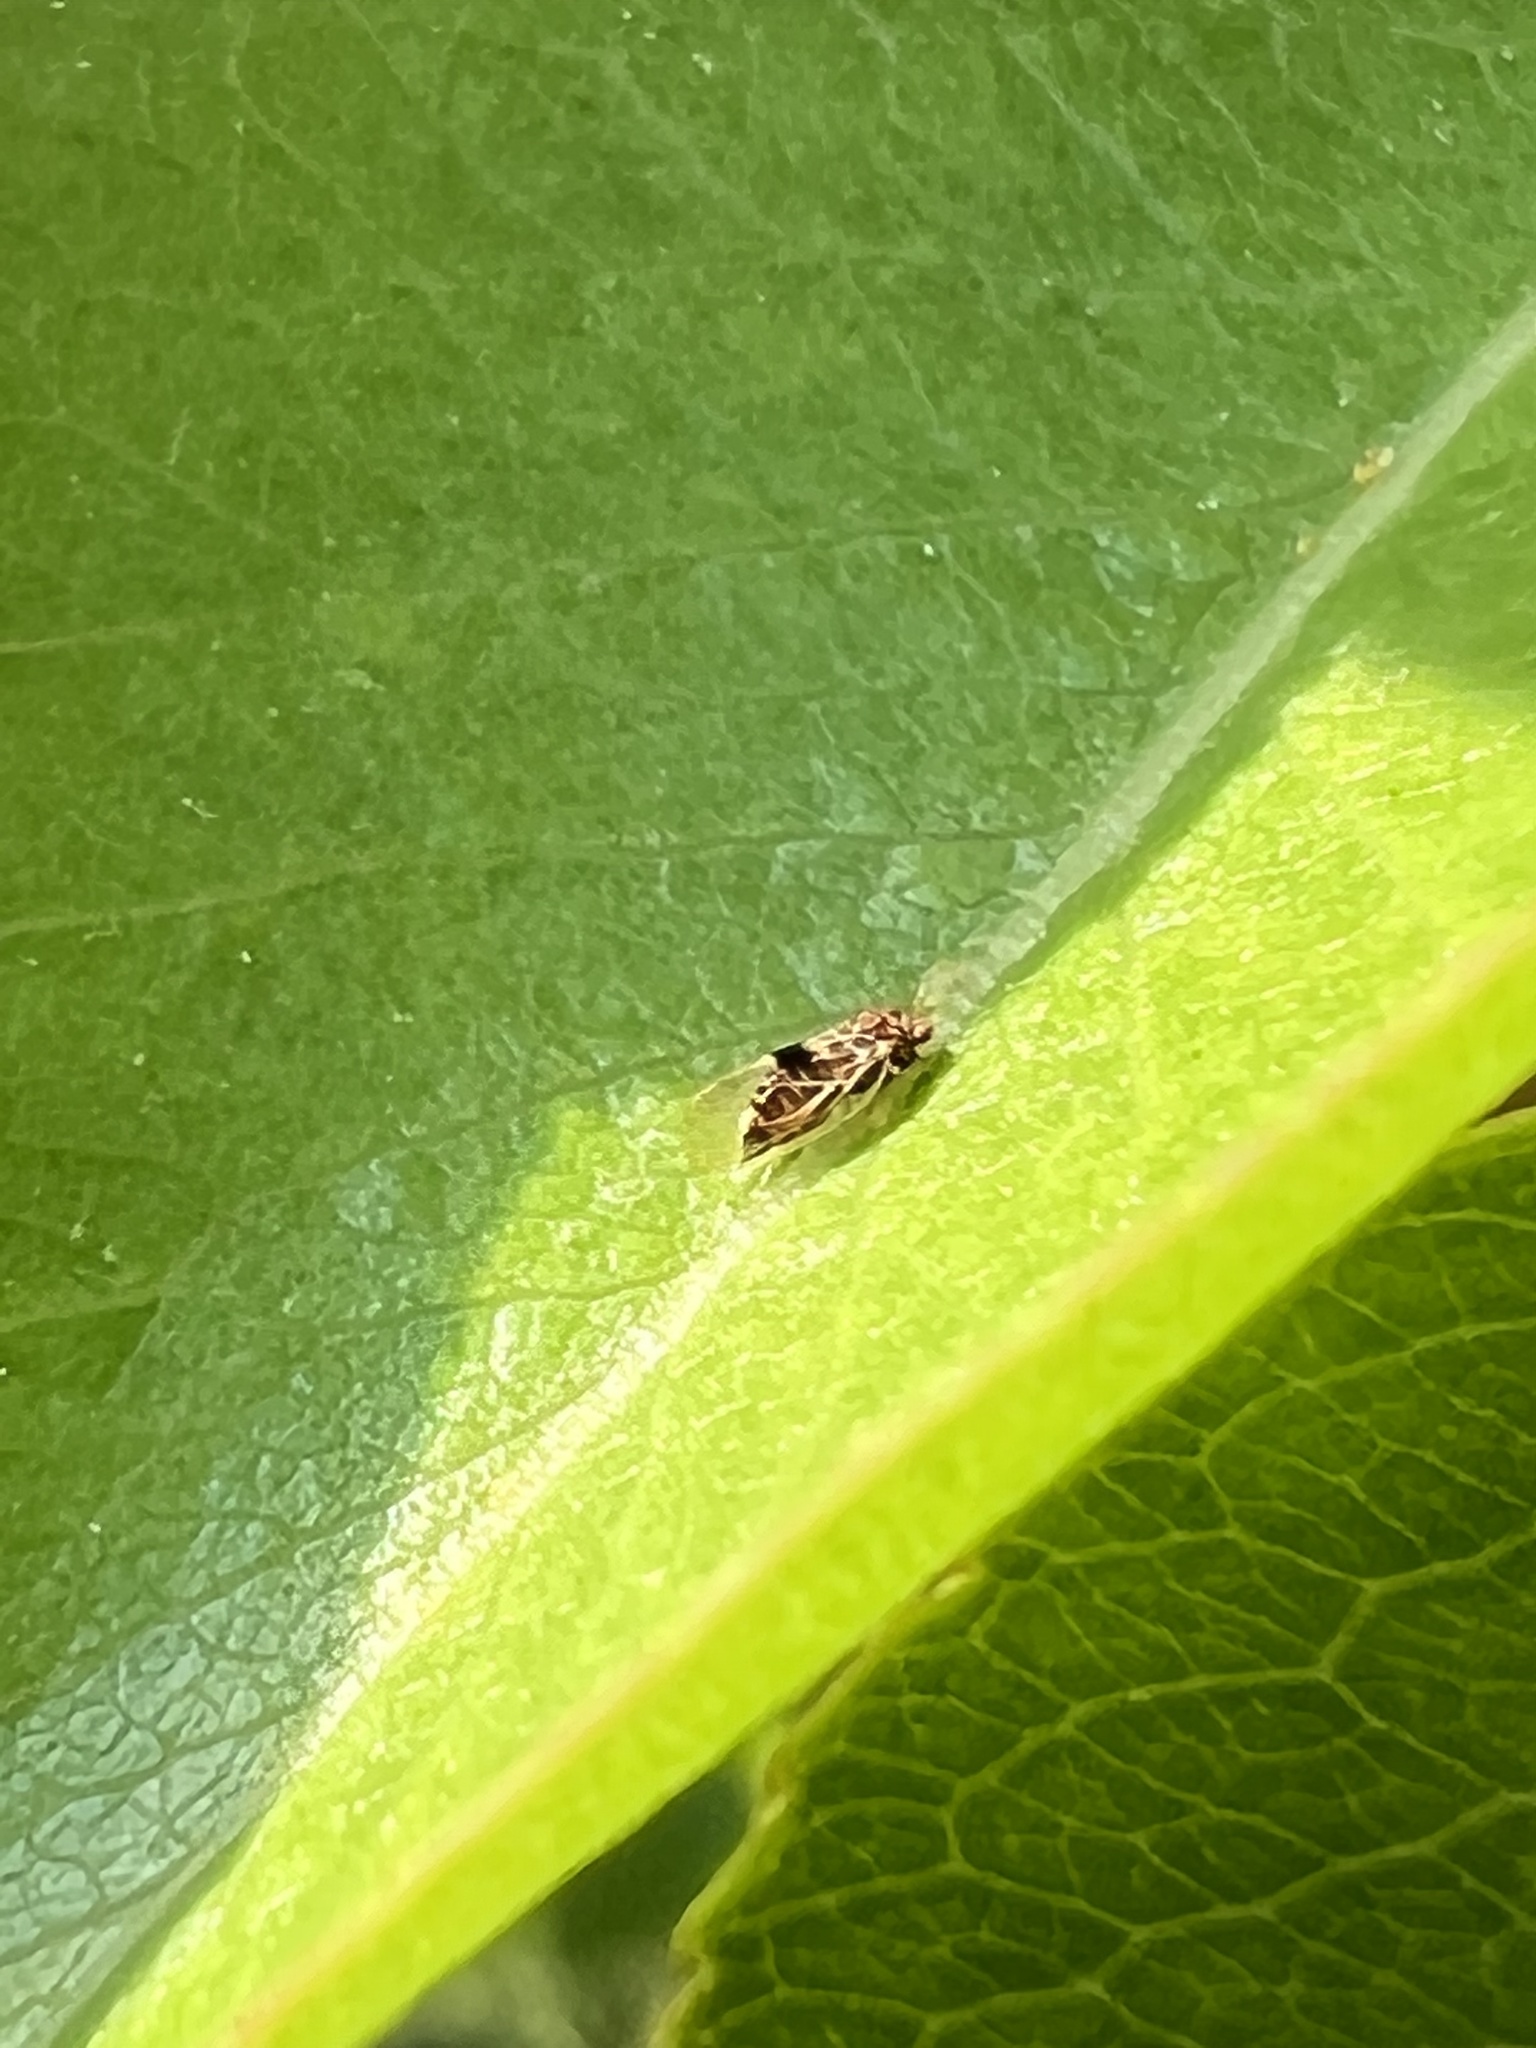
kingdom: Animalia
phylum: Arthropoda
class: Insecta
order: Hemiptera
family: Psyllidae
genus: Cacopsylla
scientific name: Cacopsylla pyricola
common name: Pear psylla
